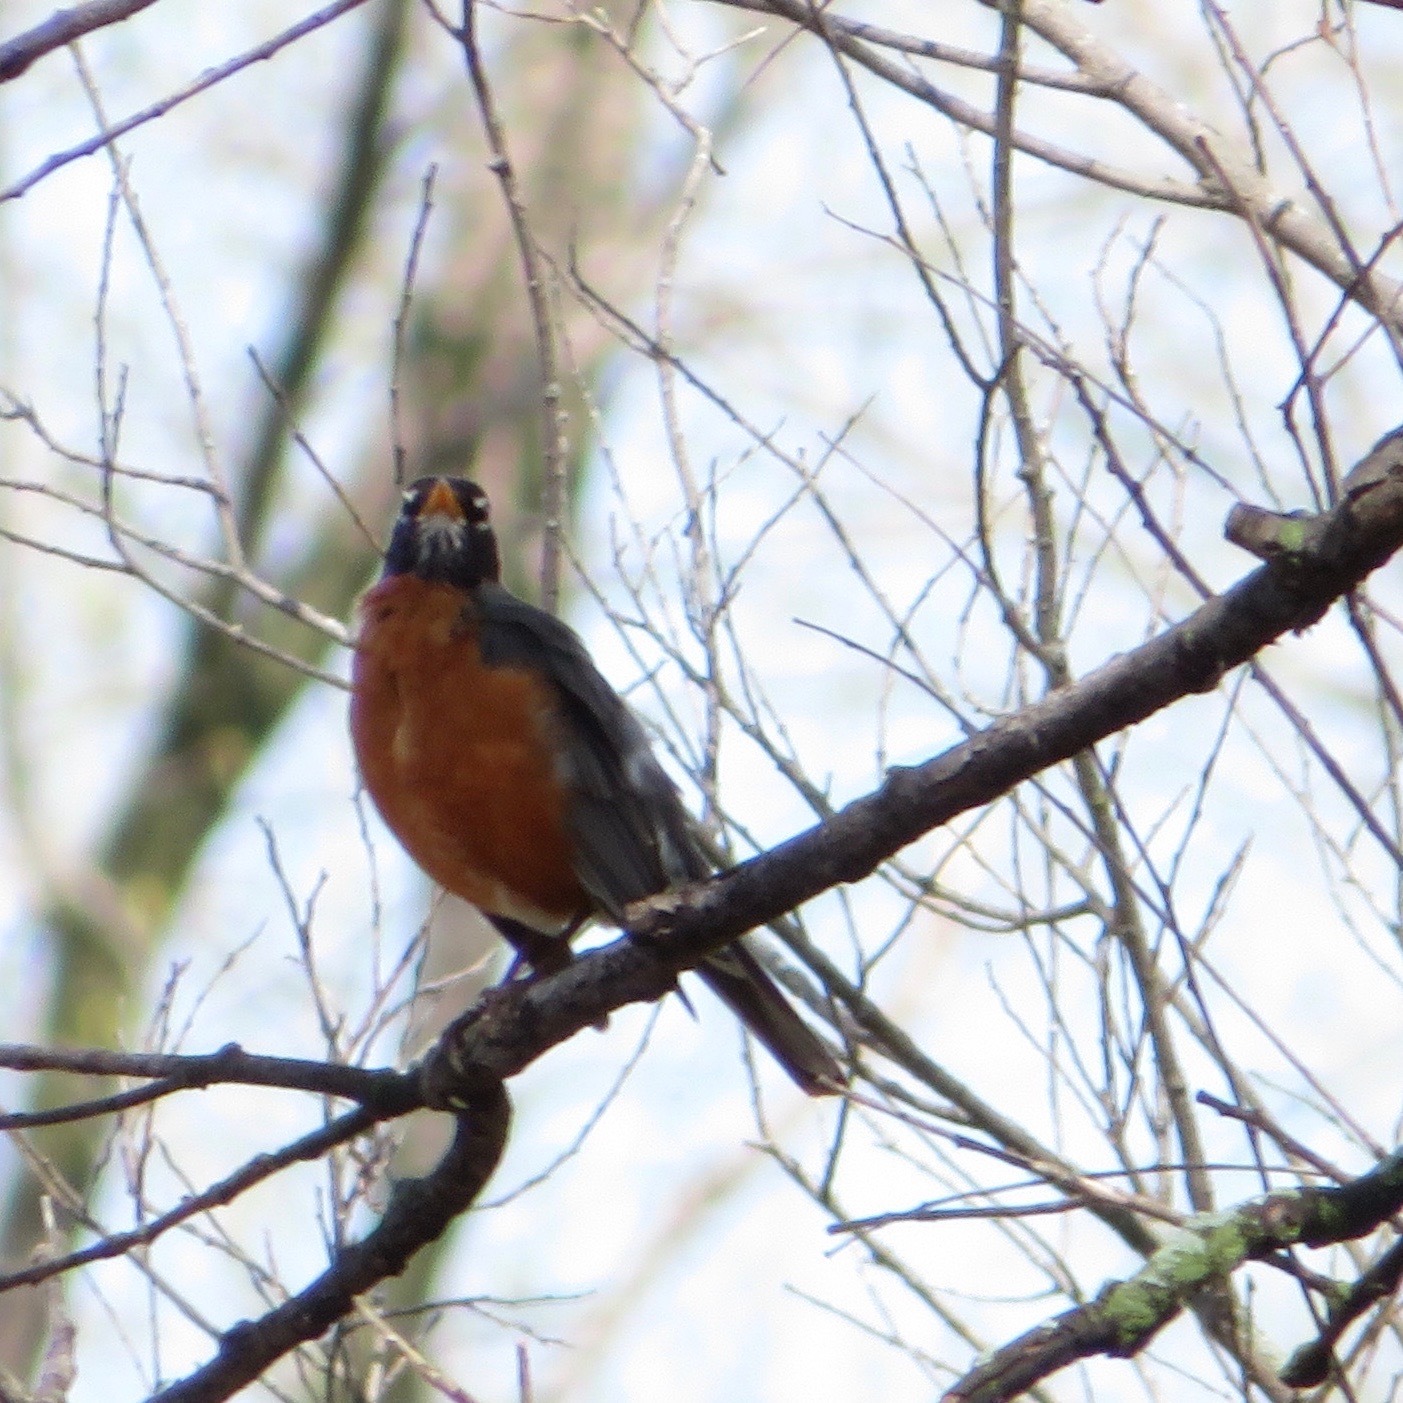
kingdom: Animalia
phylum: Chordata
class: Aves
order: Passeriformes
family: Turdidae
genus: Turdus
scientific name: Turdus migratorius
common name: American robin
